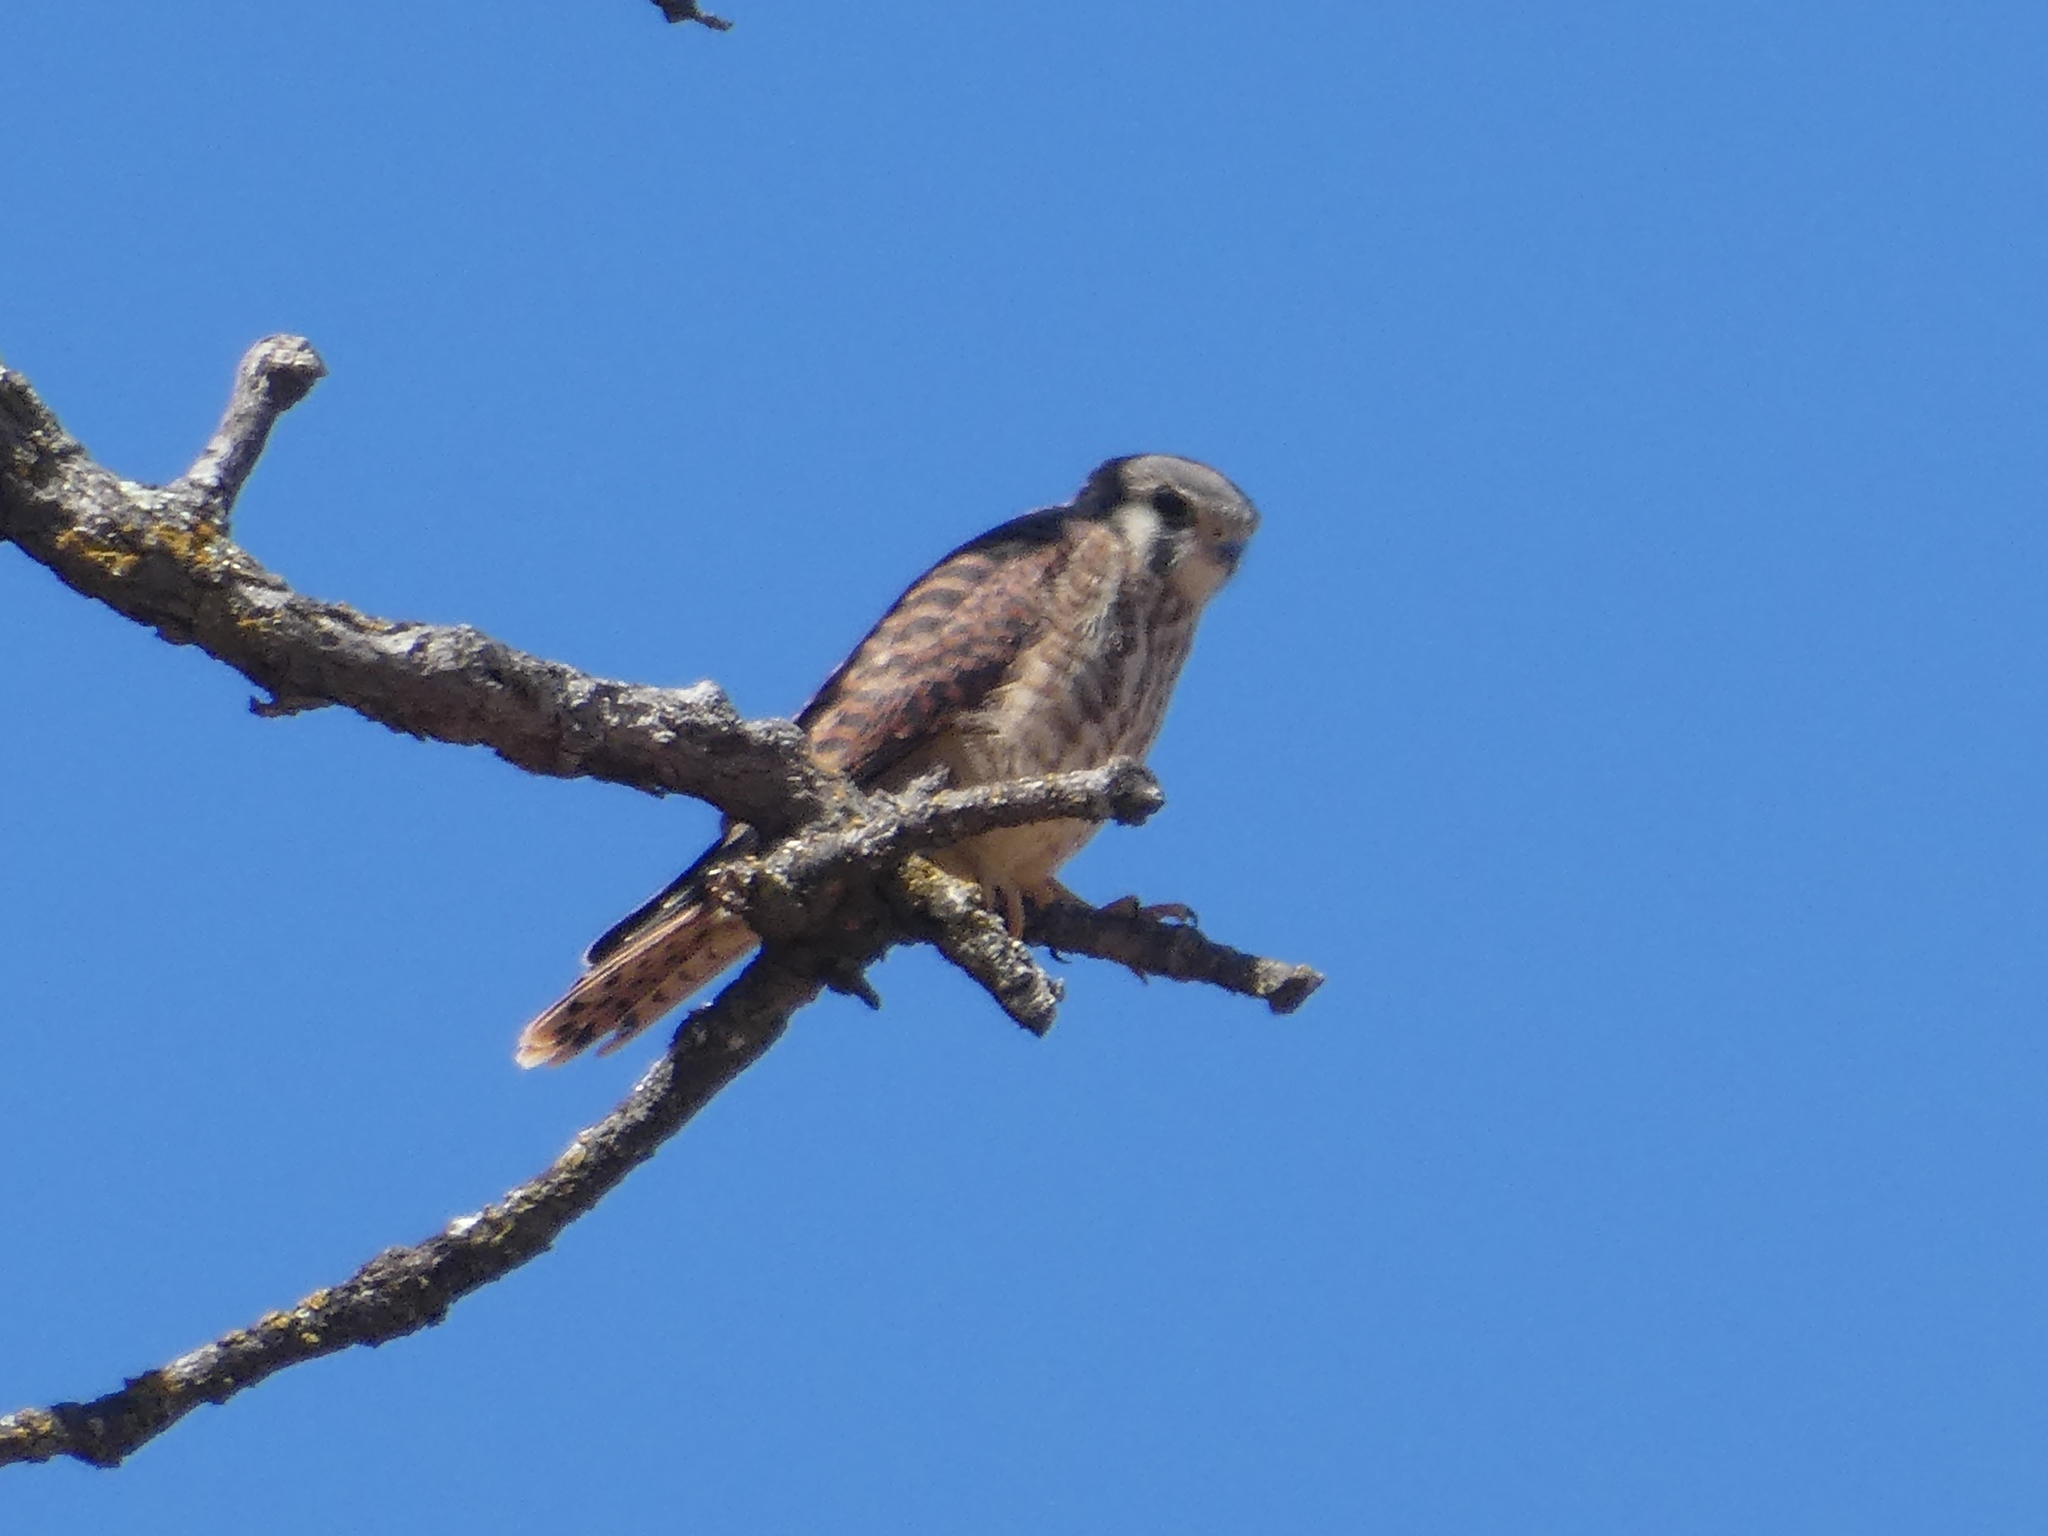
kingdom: Animalia
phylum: Chordata
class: Aves
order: Falconiformes
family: Falconidae
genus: Falco
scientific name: Falco sparverius
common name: American kestrel
